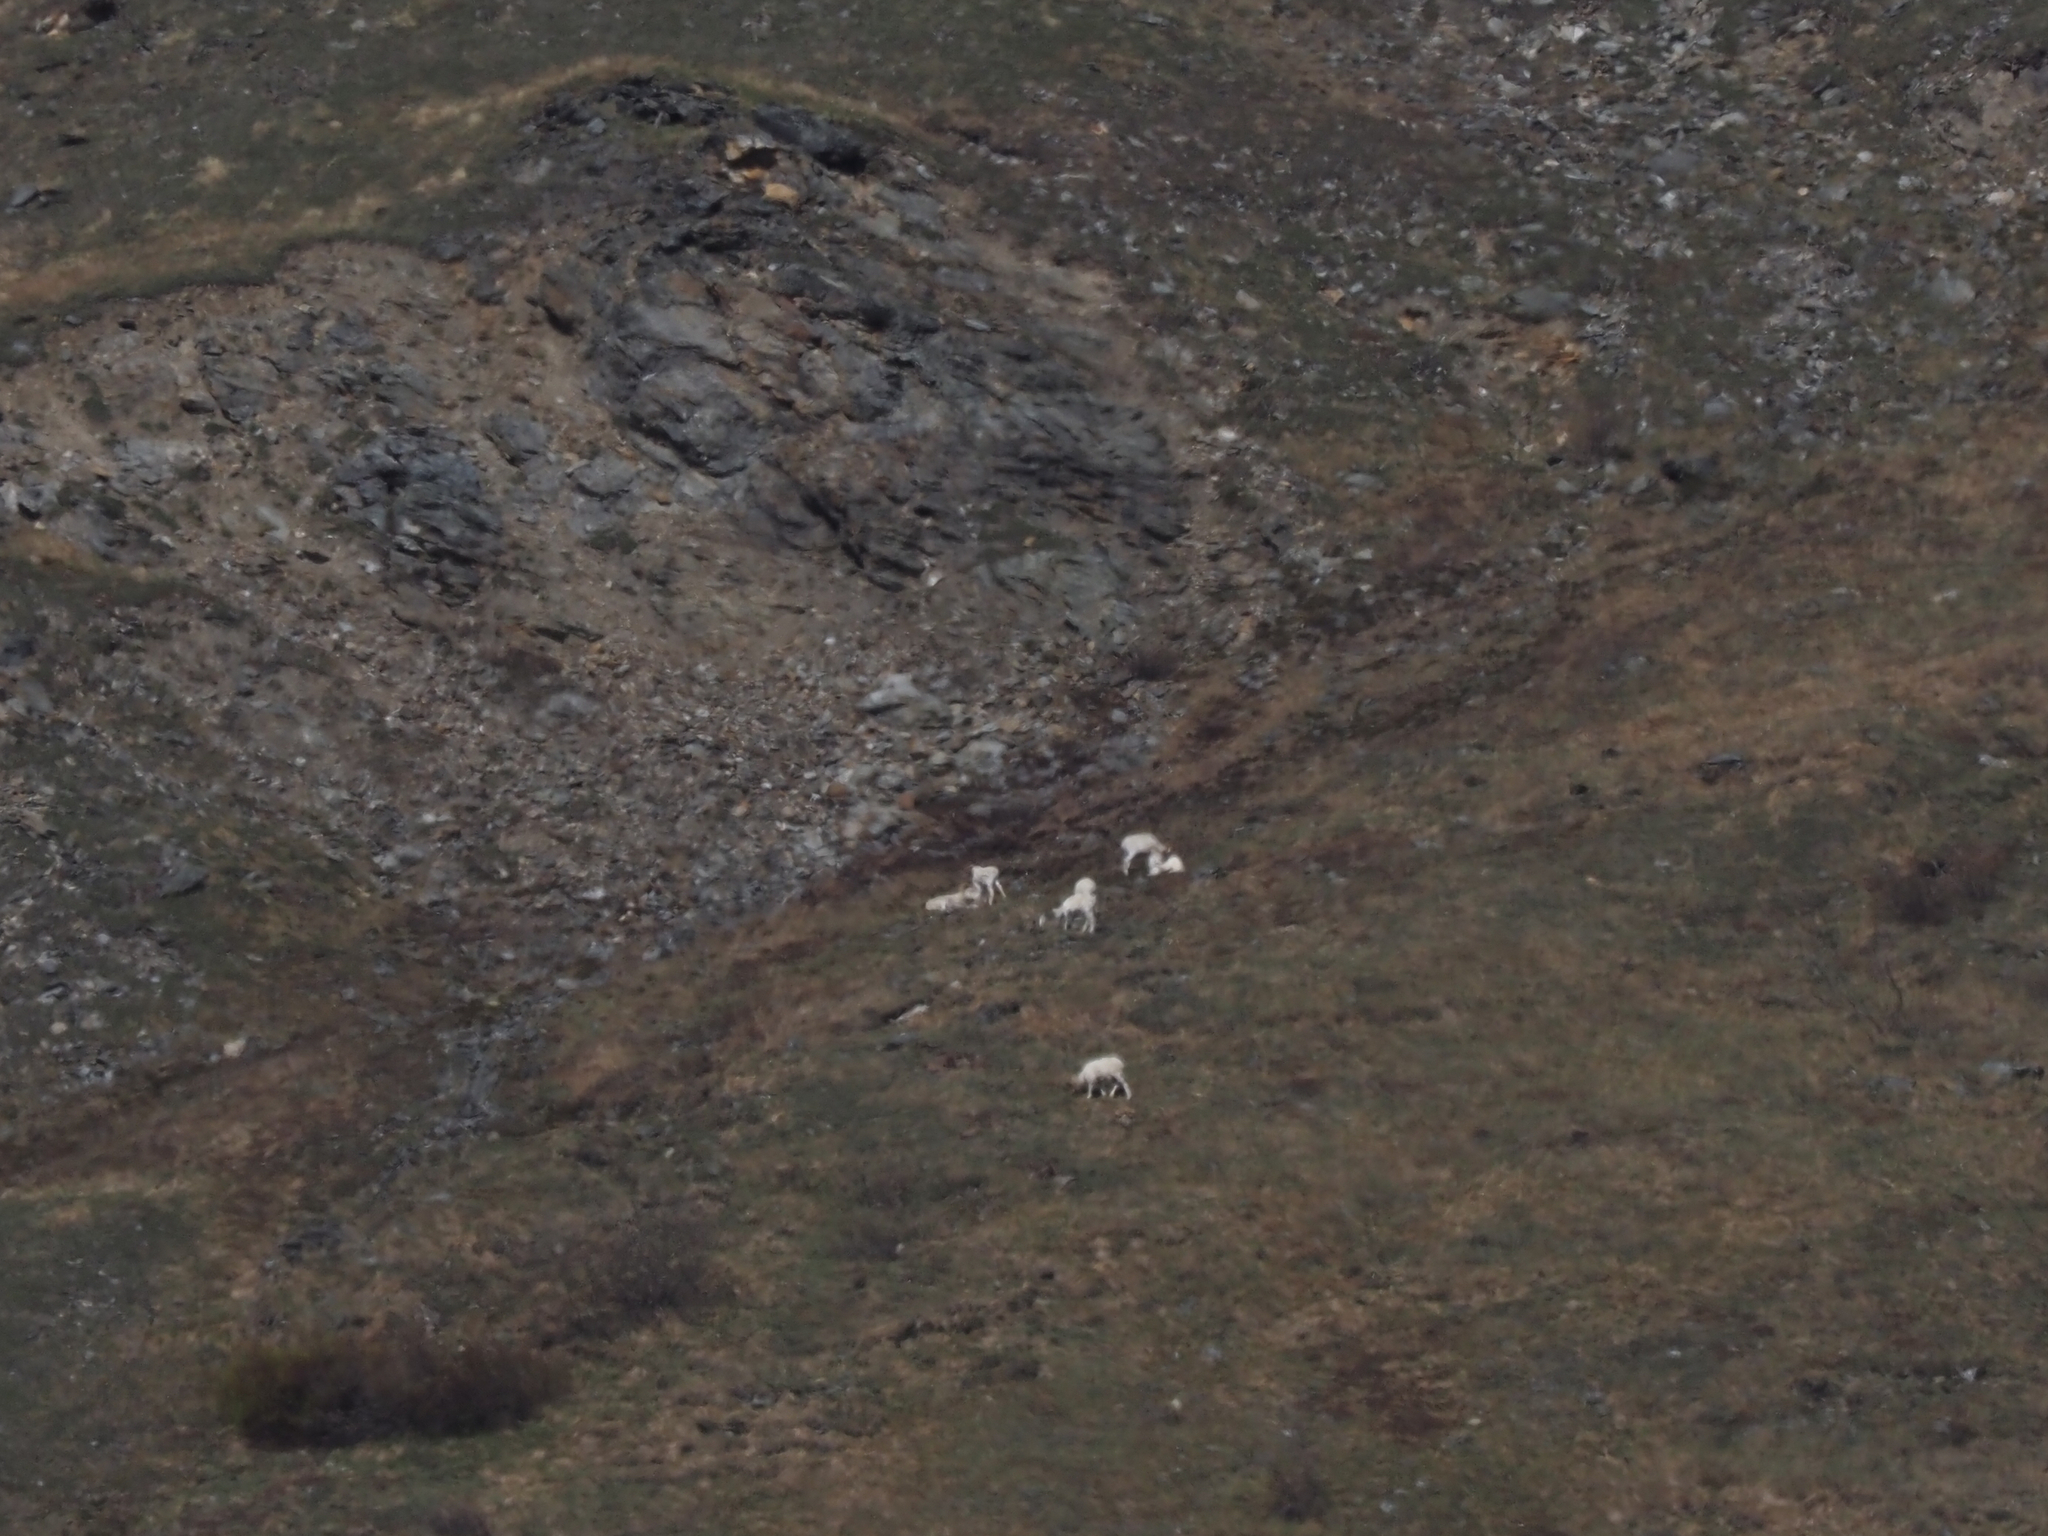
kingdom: Animalia
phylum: Chordata
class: Mammalia
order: Artiodactyla
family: Bovidae
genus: Ovis
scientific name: Ovis dalli
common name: Dall's sheep
